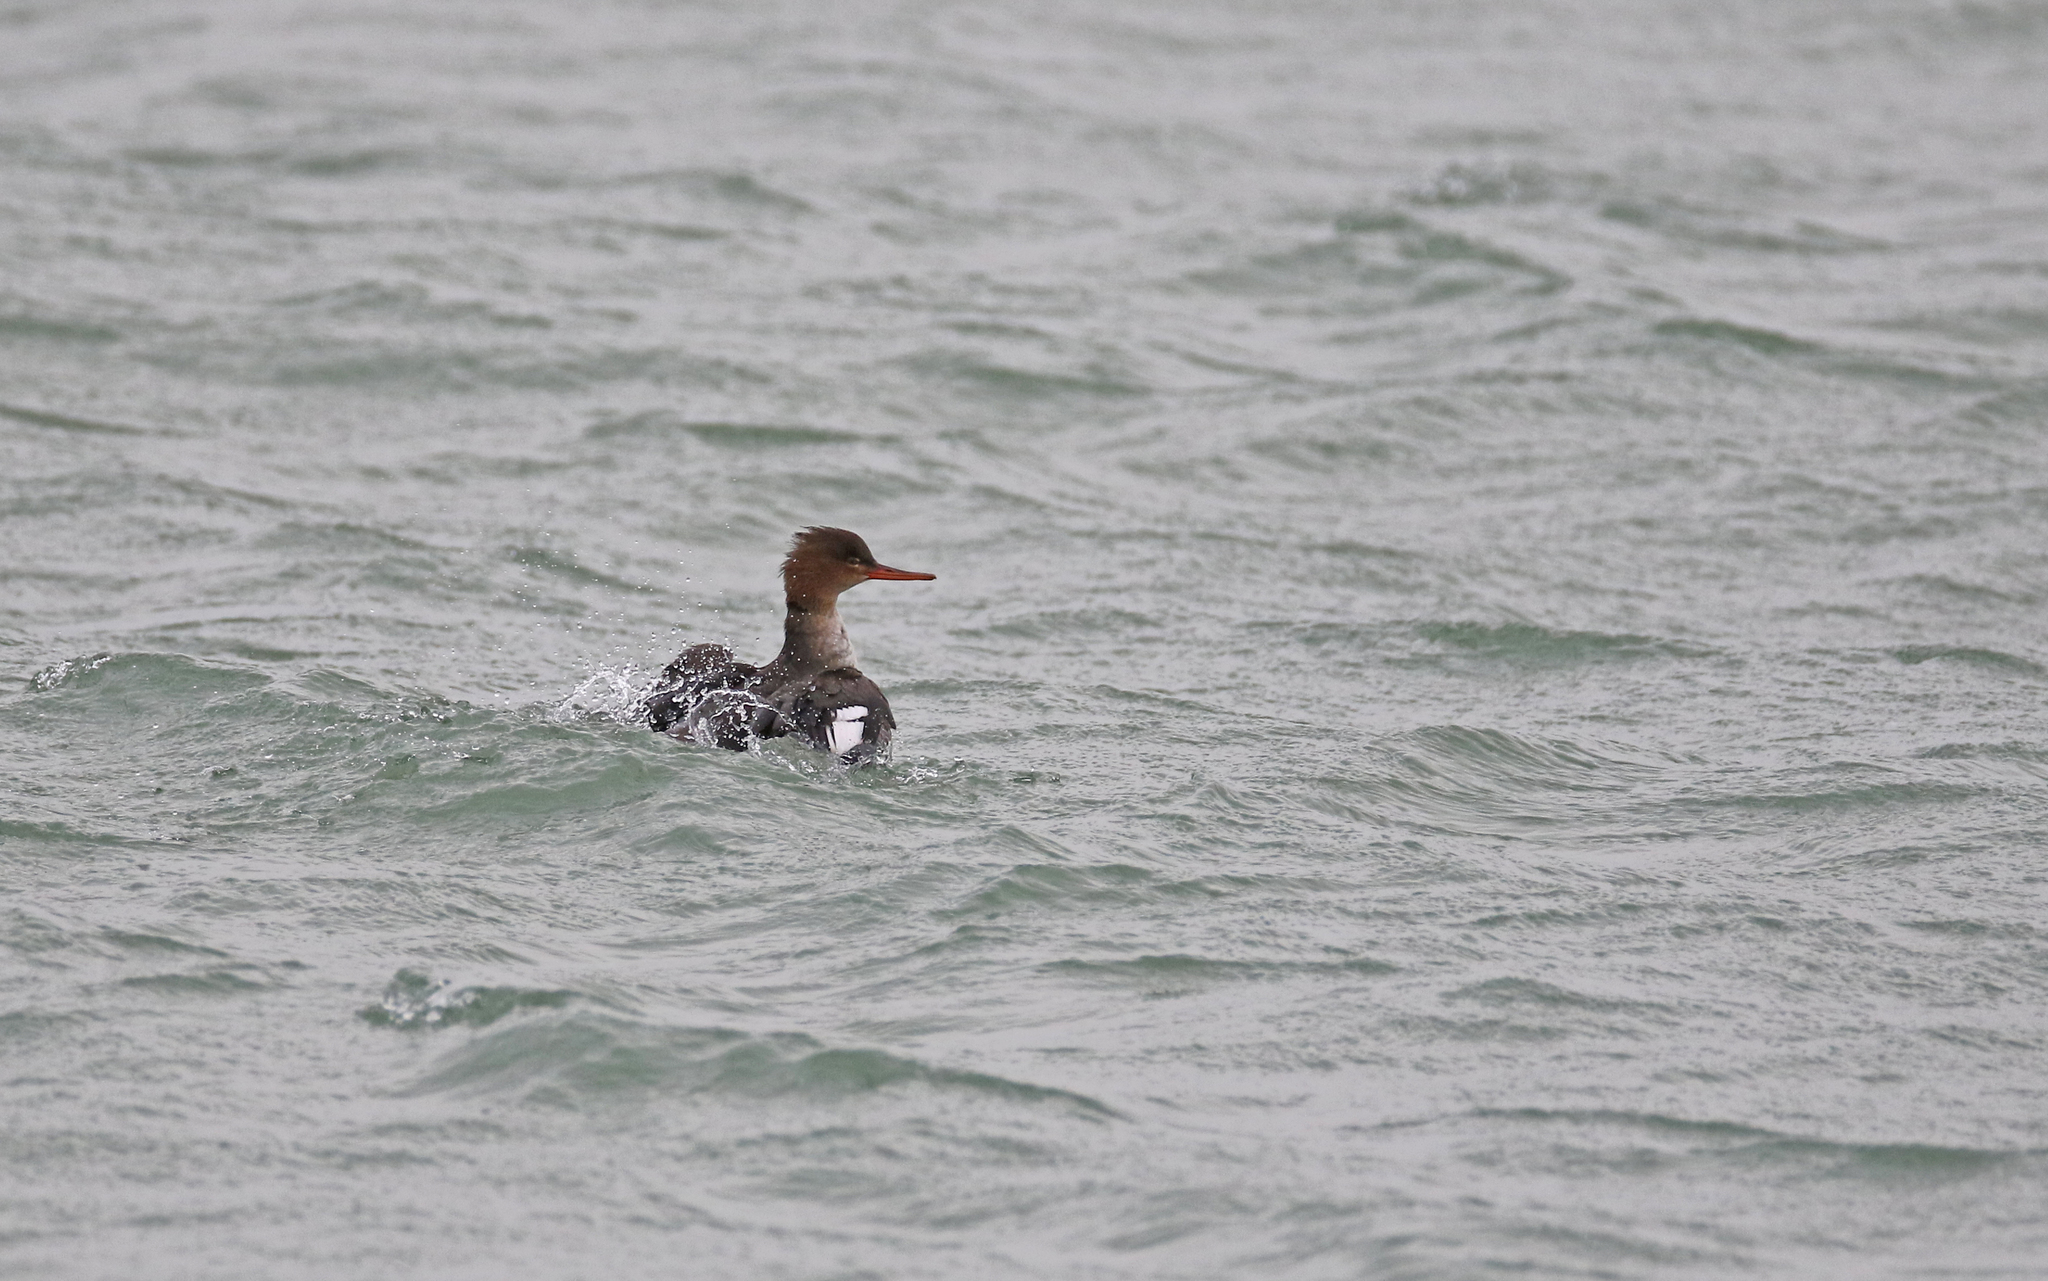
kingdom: Animalia
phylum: Chordata
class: Aves
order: Anseriformes
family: Anatidae
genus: Mergus
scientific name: Mergus serrator
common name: Red-breasted merganser
